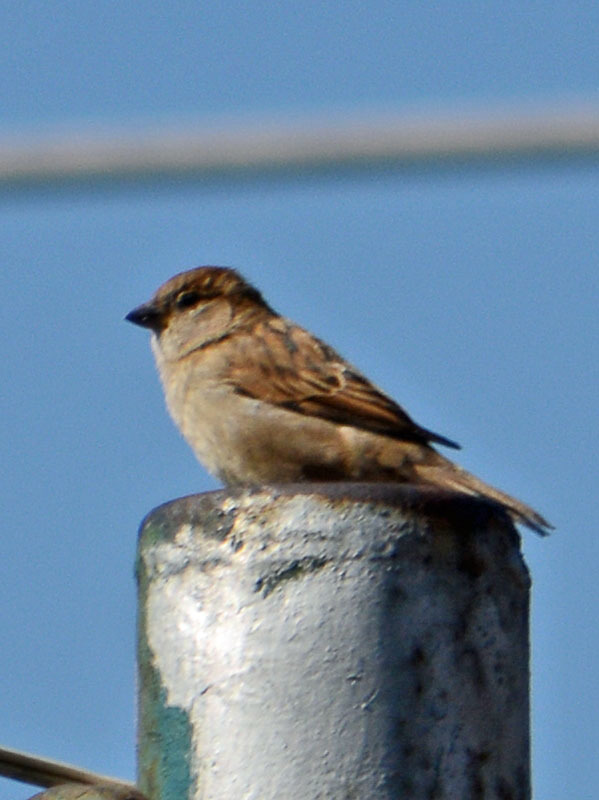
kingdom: Animalia
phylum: Chordata
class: Aves
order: Passeriformes
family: Passeridae
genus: Passer
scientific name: Passer domesticus
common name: House sparrow
